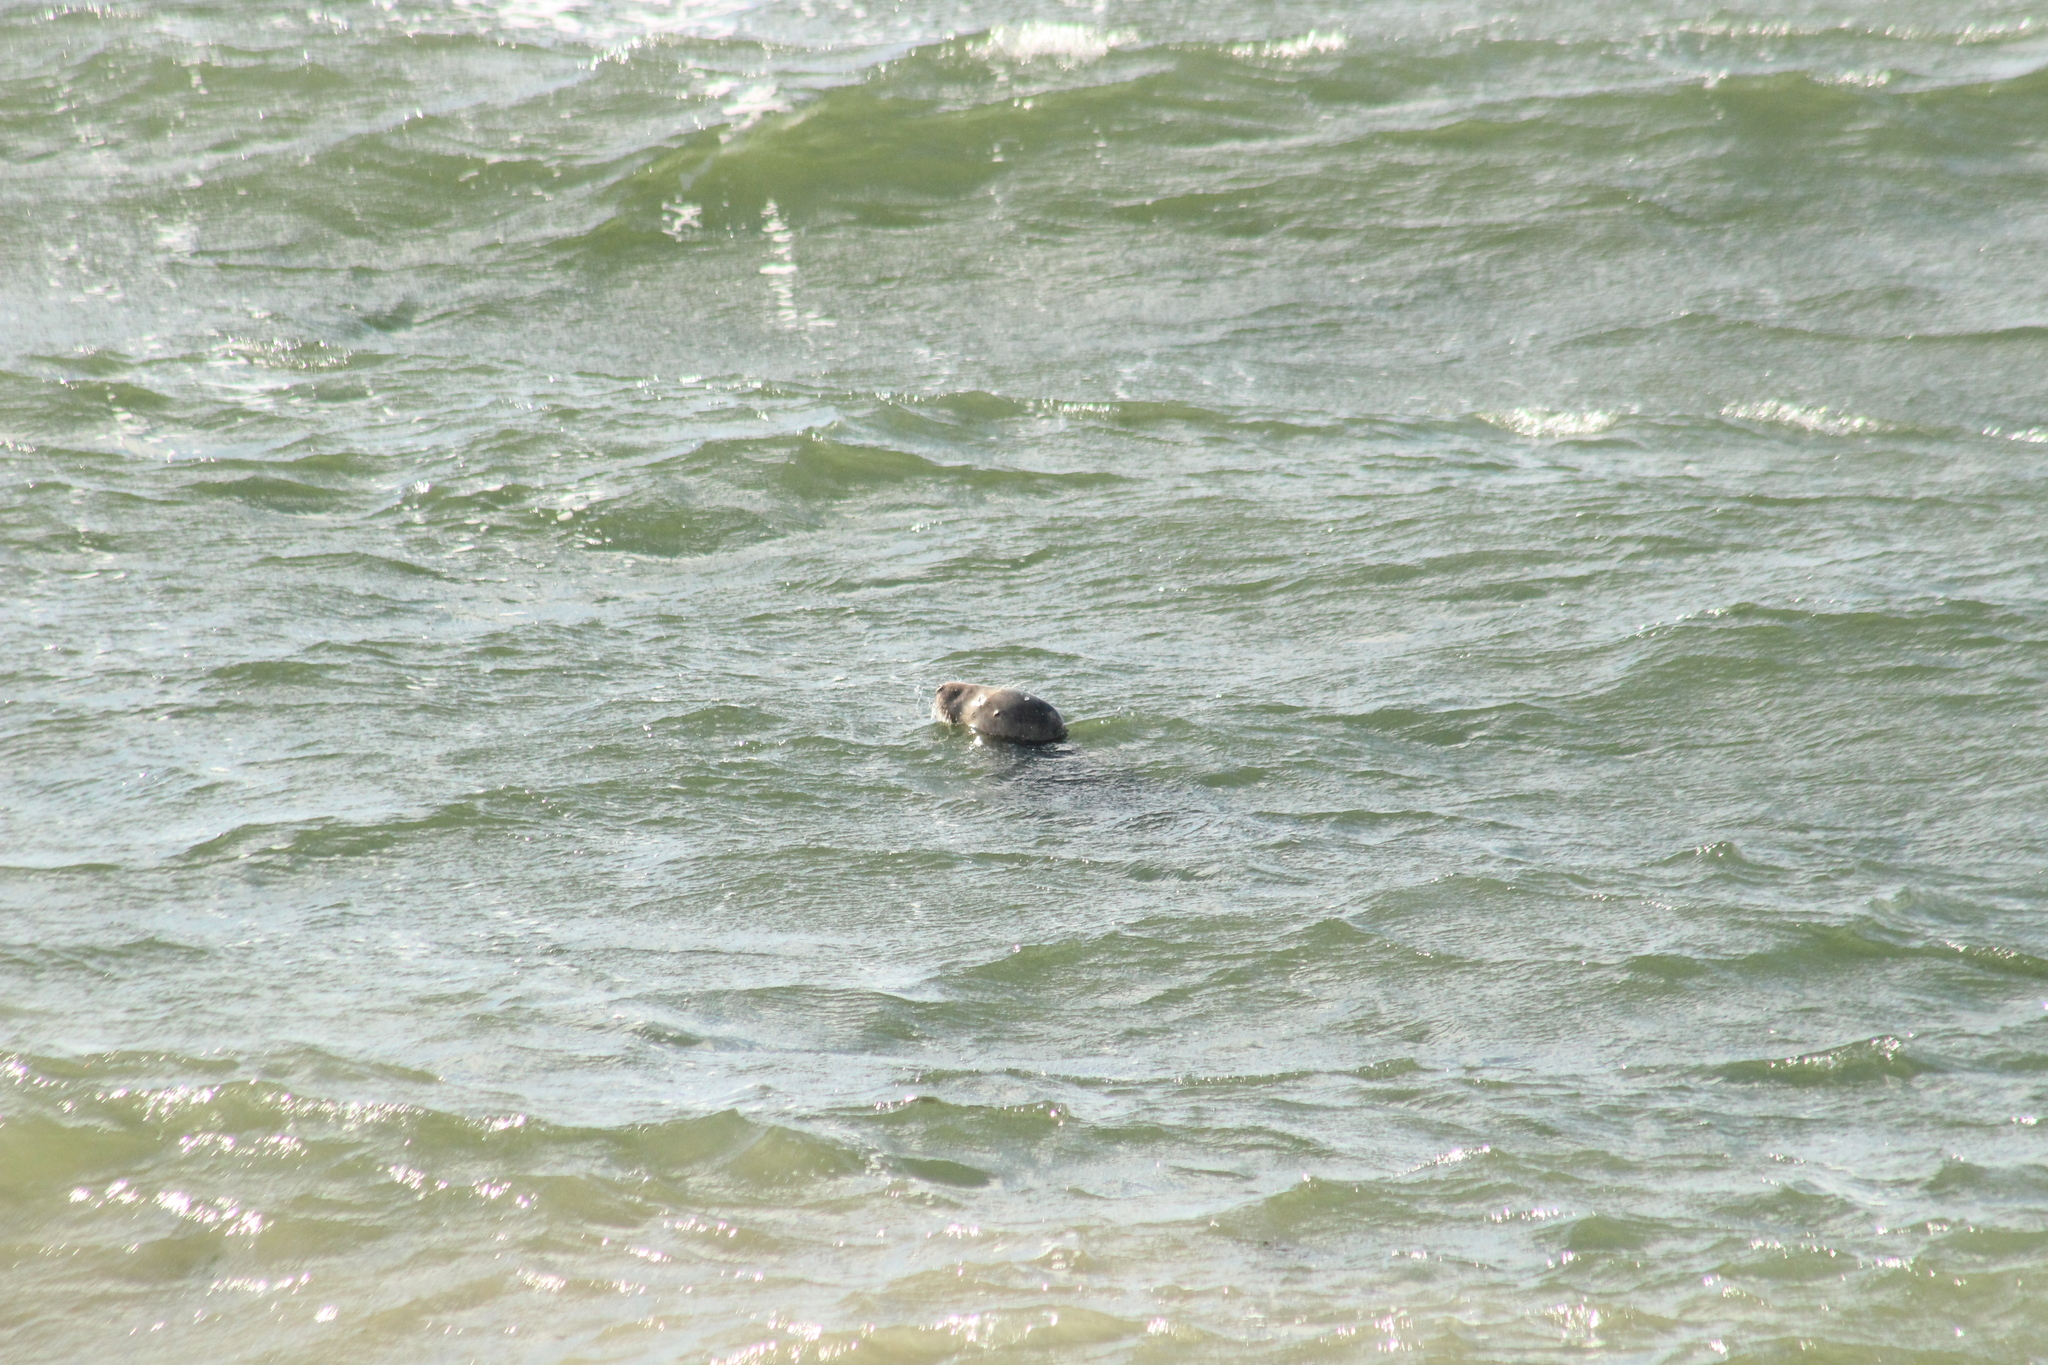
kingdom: Animalia
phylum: Chordata
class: Mammalia
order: Carnivora
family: Phocidae
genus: Halichoerus
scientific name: Halichoerus grypus
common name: Grey seal
